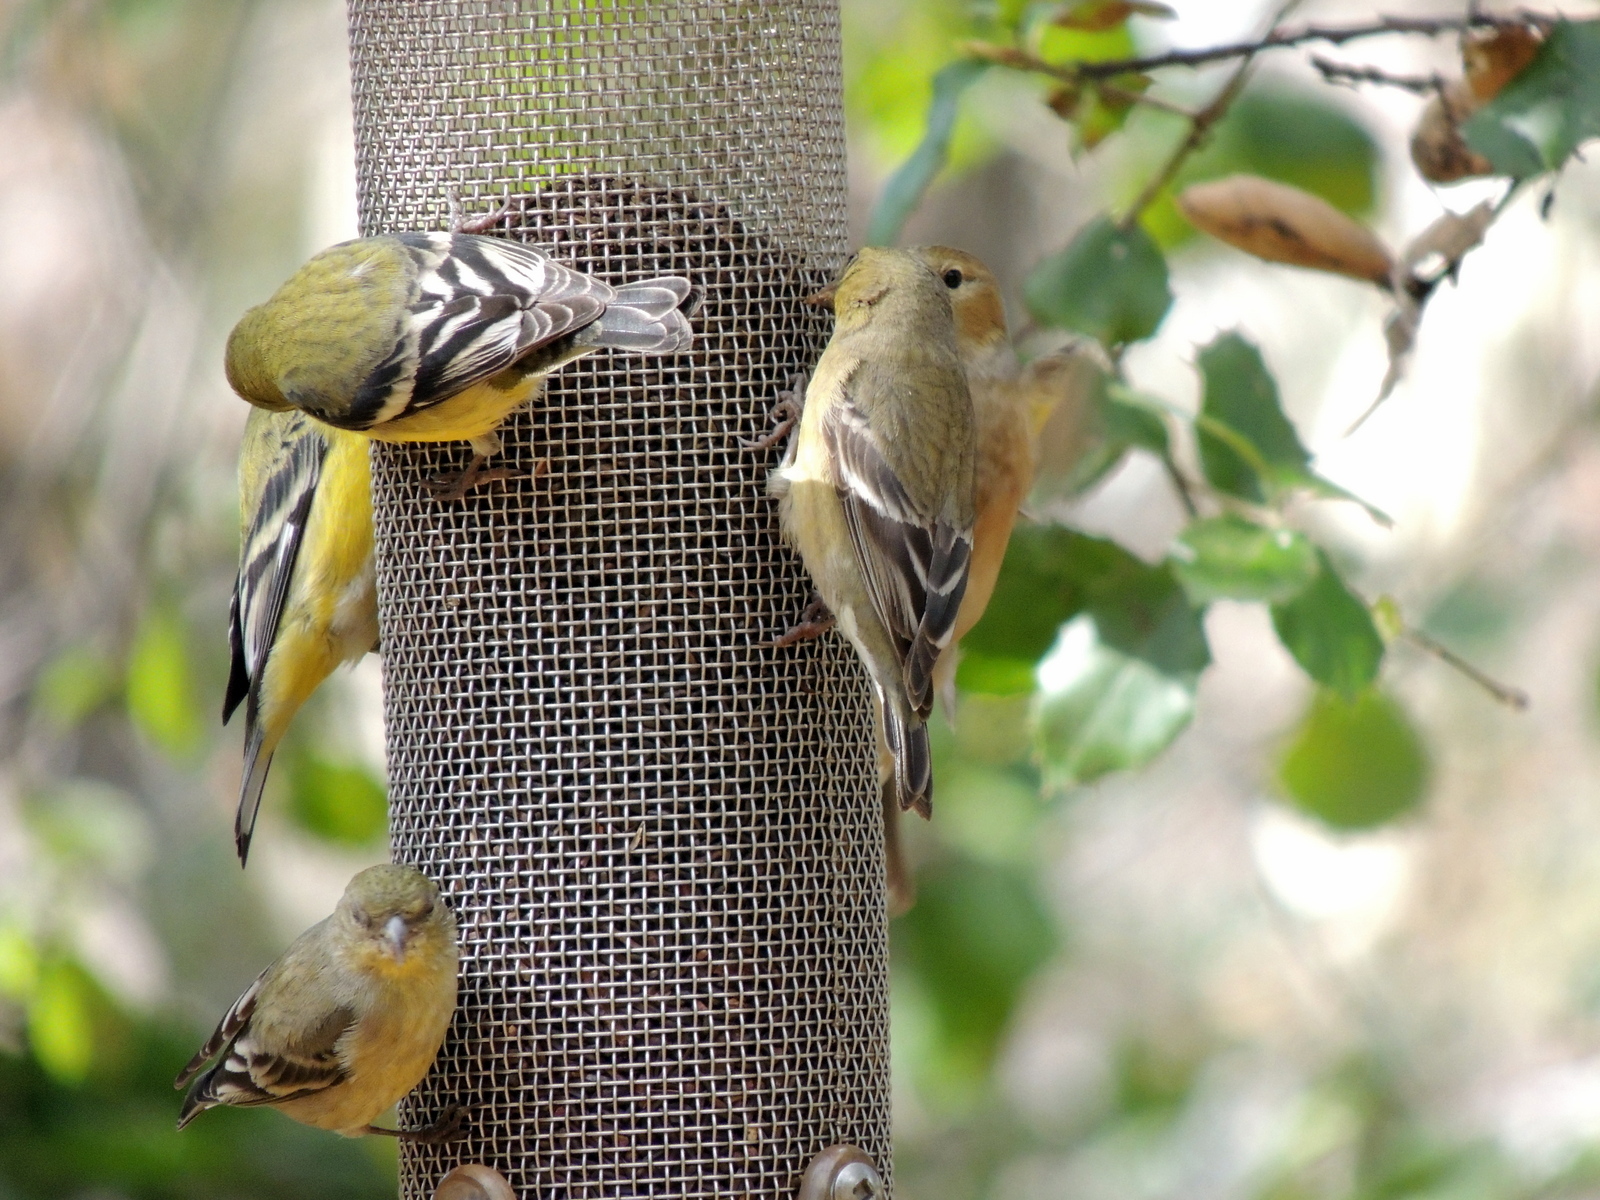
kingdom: Animalia
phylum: Chordata
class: Aves
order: Passeriformes
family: Fringillidae
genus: Spinus
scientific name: Spinus psaltria
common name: Lesser goldfinch
